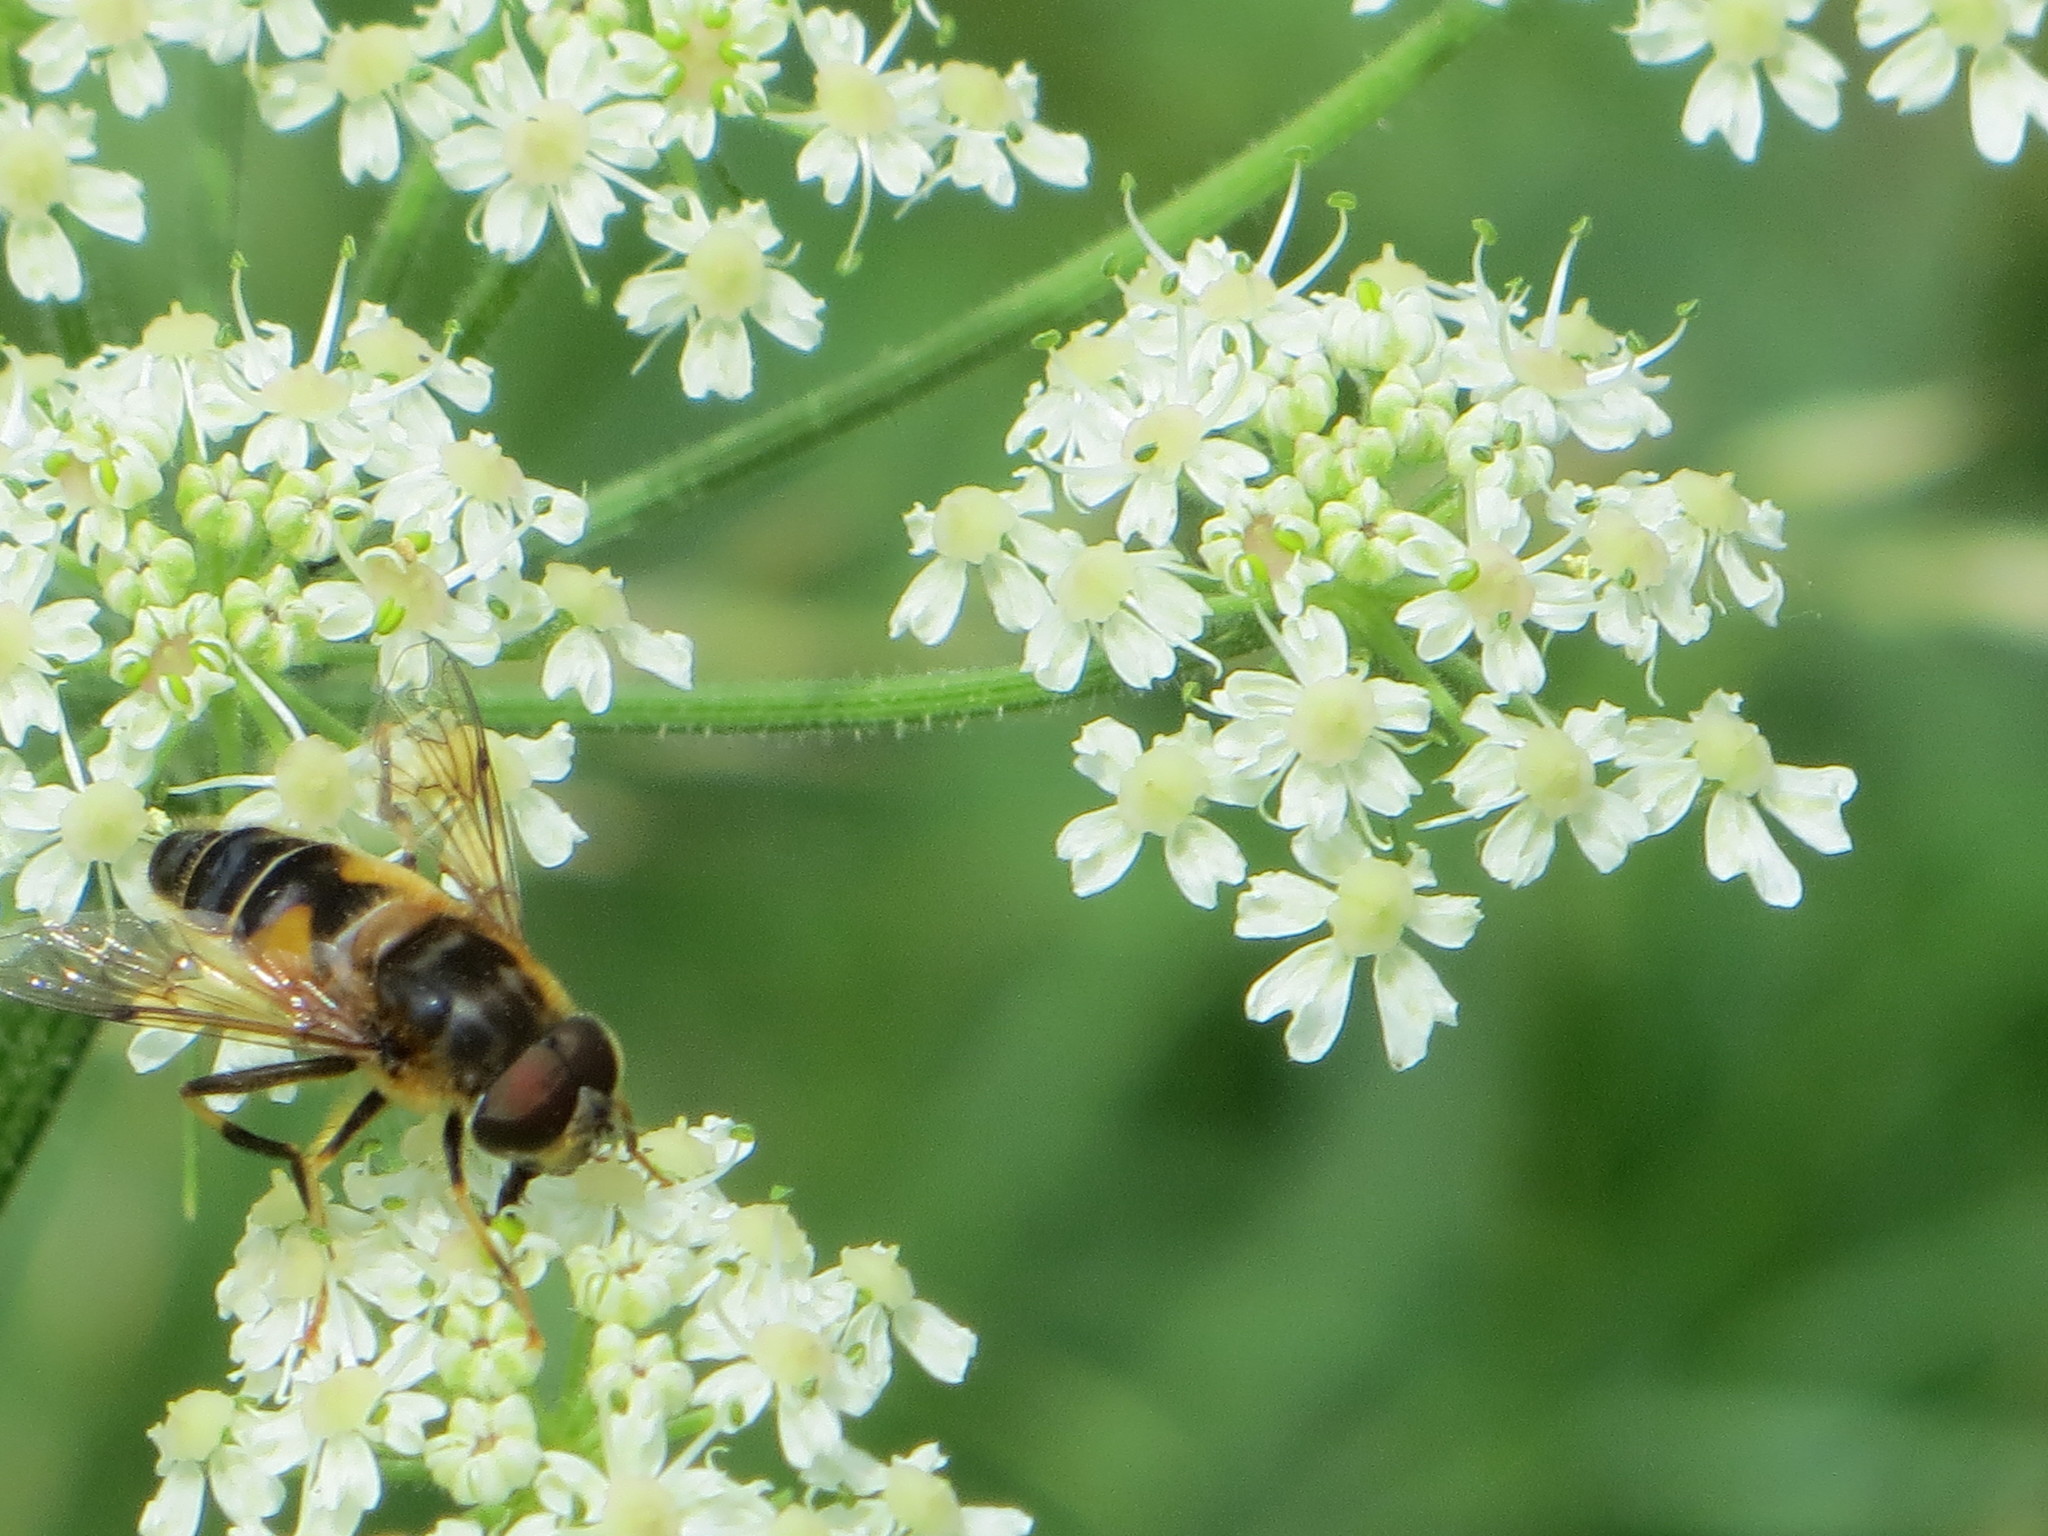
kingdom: Animalia
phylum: Arthropoda
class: Insecta
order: Diptera
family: Syrphidae
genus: Eristalis
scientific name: Eristalis pertinax
